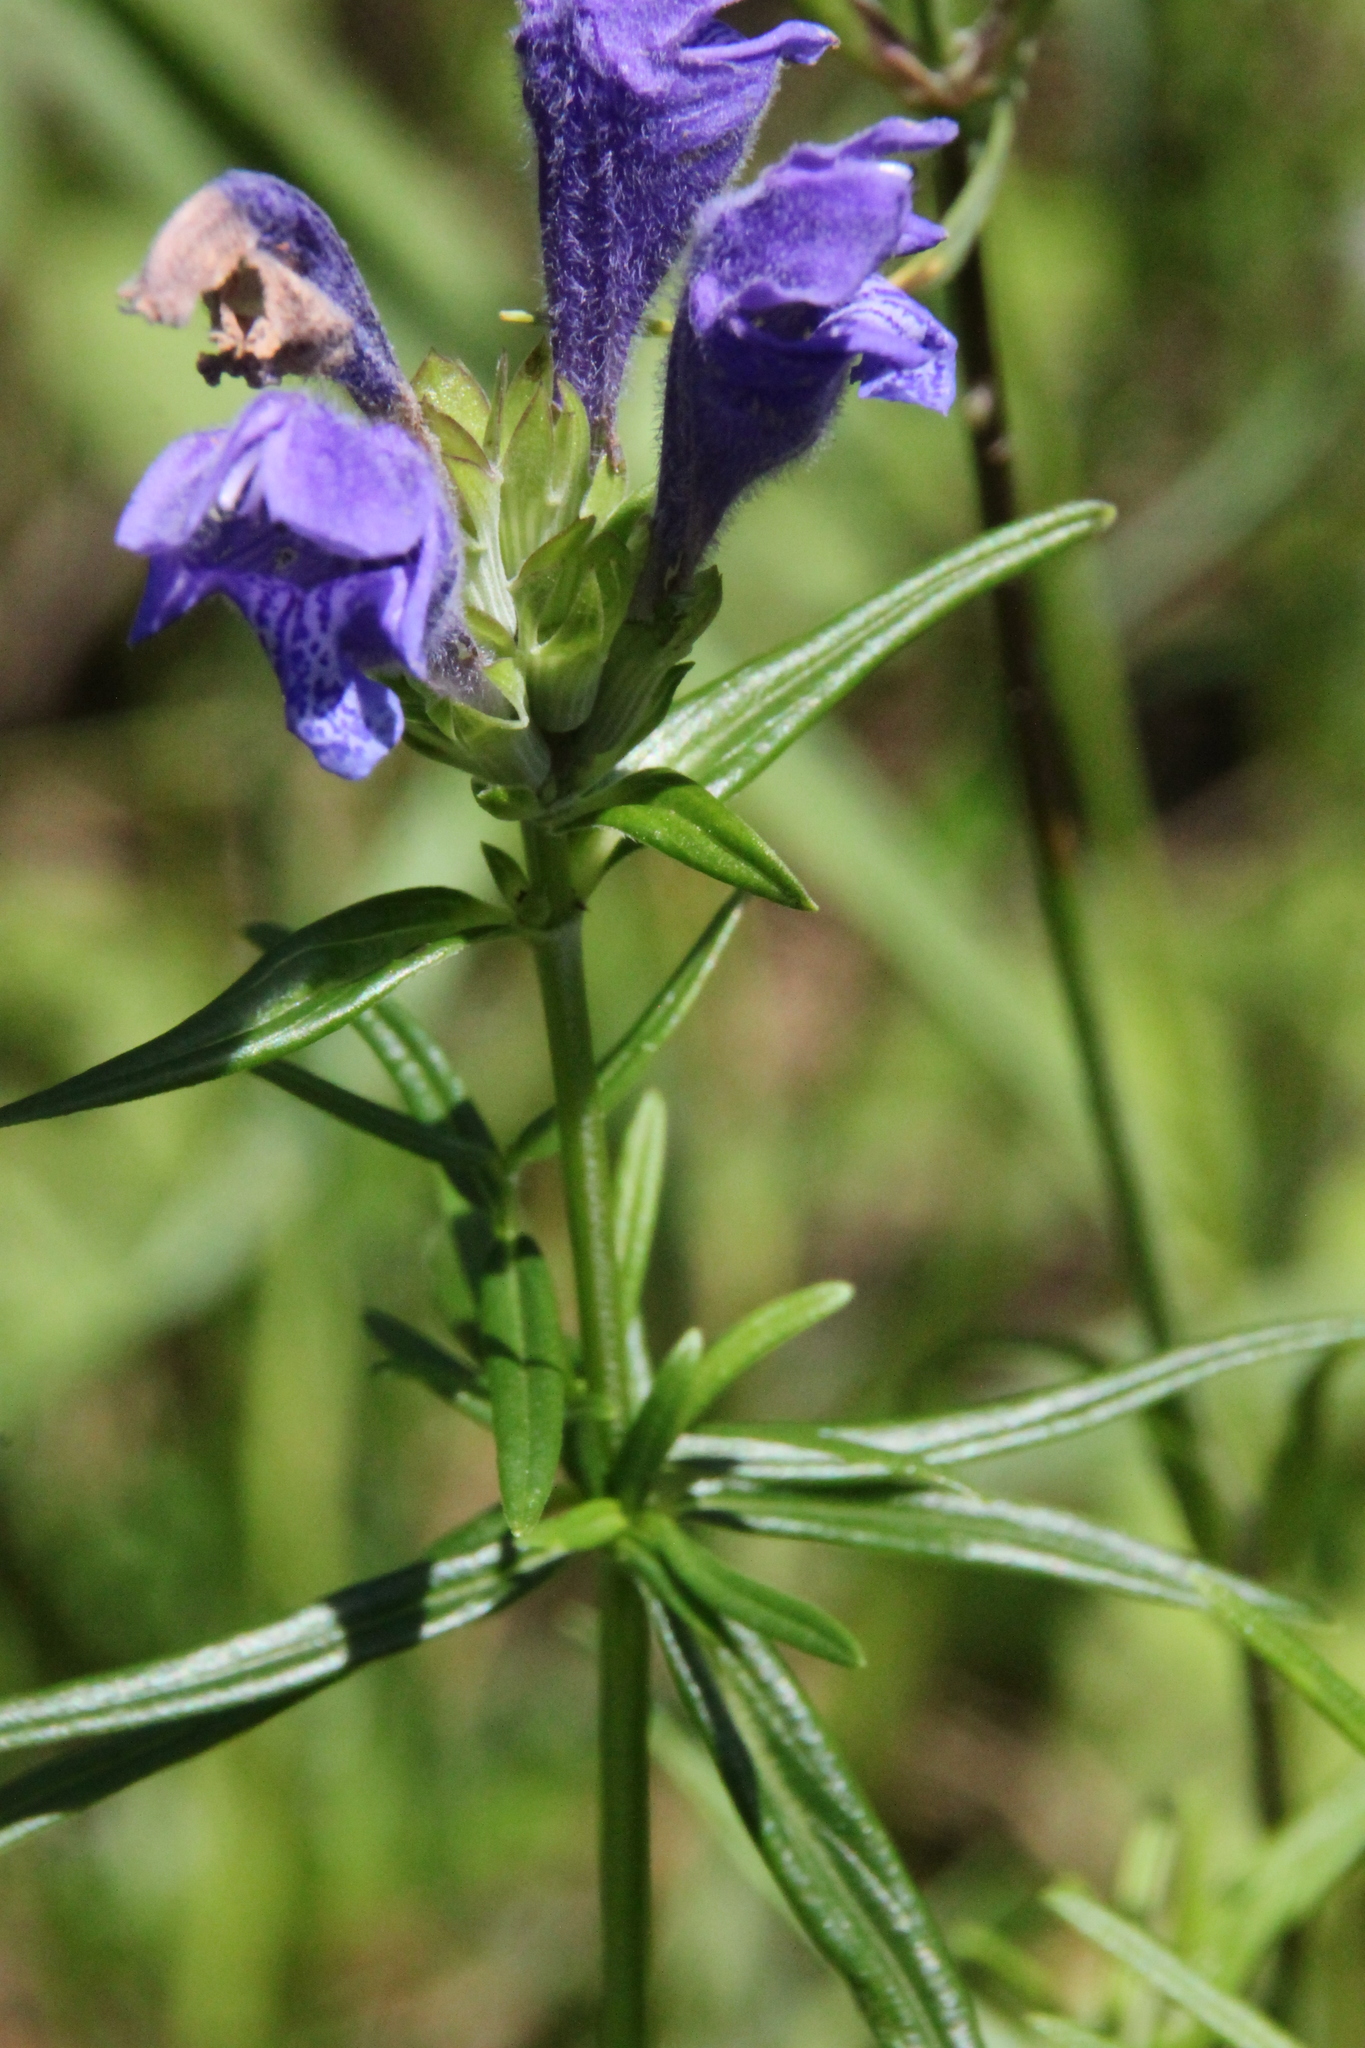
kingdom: Plantae
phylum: Tracheophyta
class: Magnoliopsida
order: Lamiales
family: Lamiaceae
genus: Dracocephalum
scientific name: Dracocephalum ruyschiana
